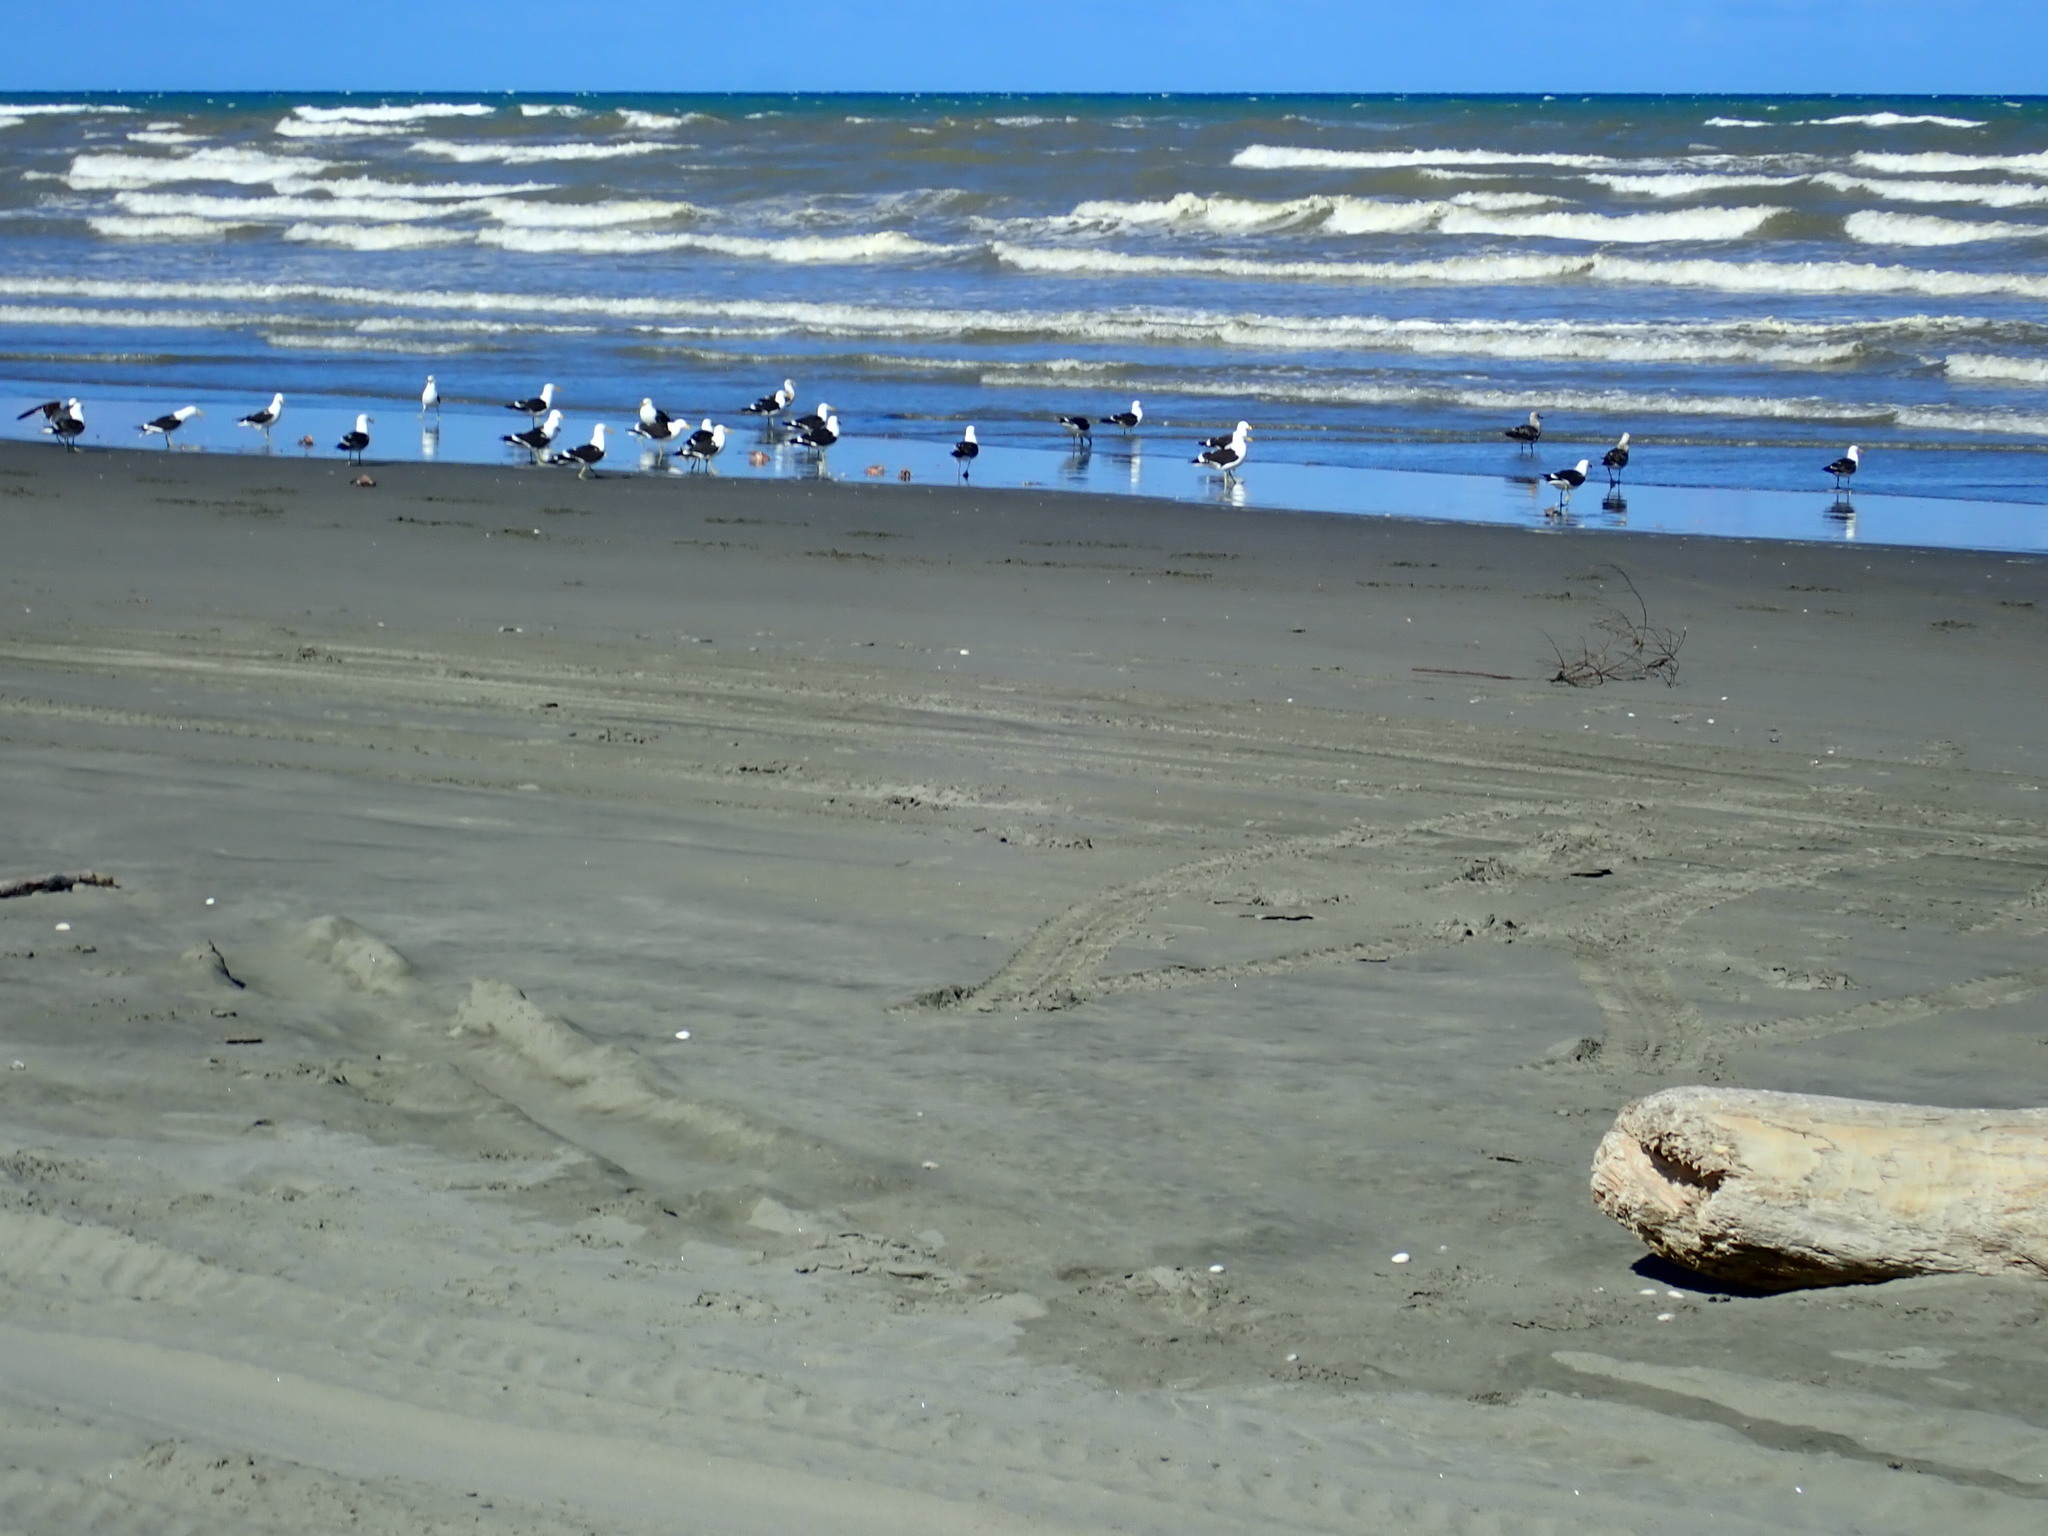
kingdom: Animalia
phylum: Chordata
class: Aves
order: Charadriiformes
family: Laridae
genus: Larus
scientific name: Larus dominicanus
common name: Kelp gull
